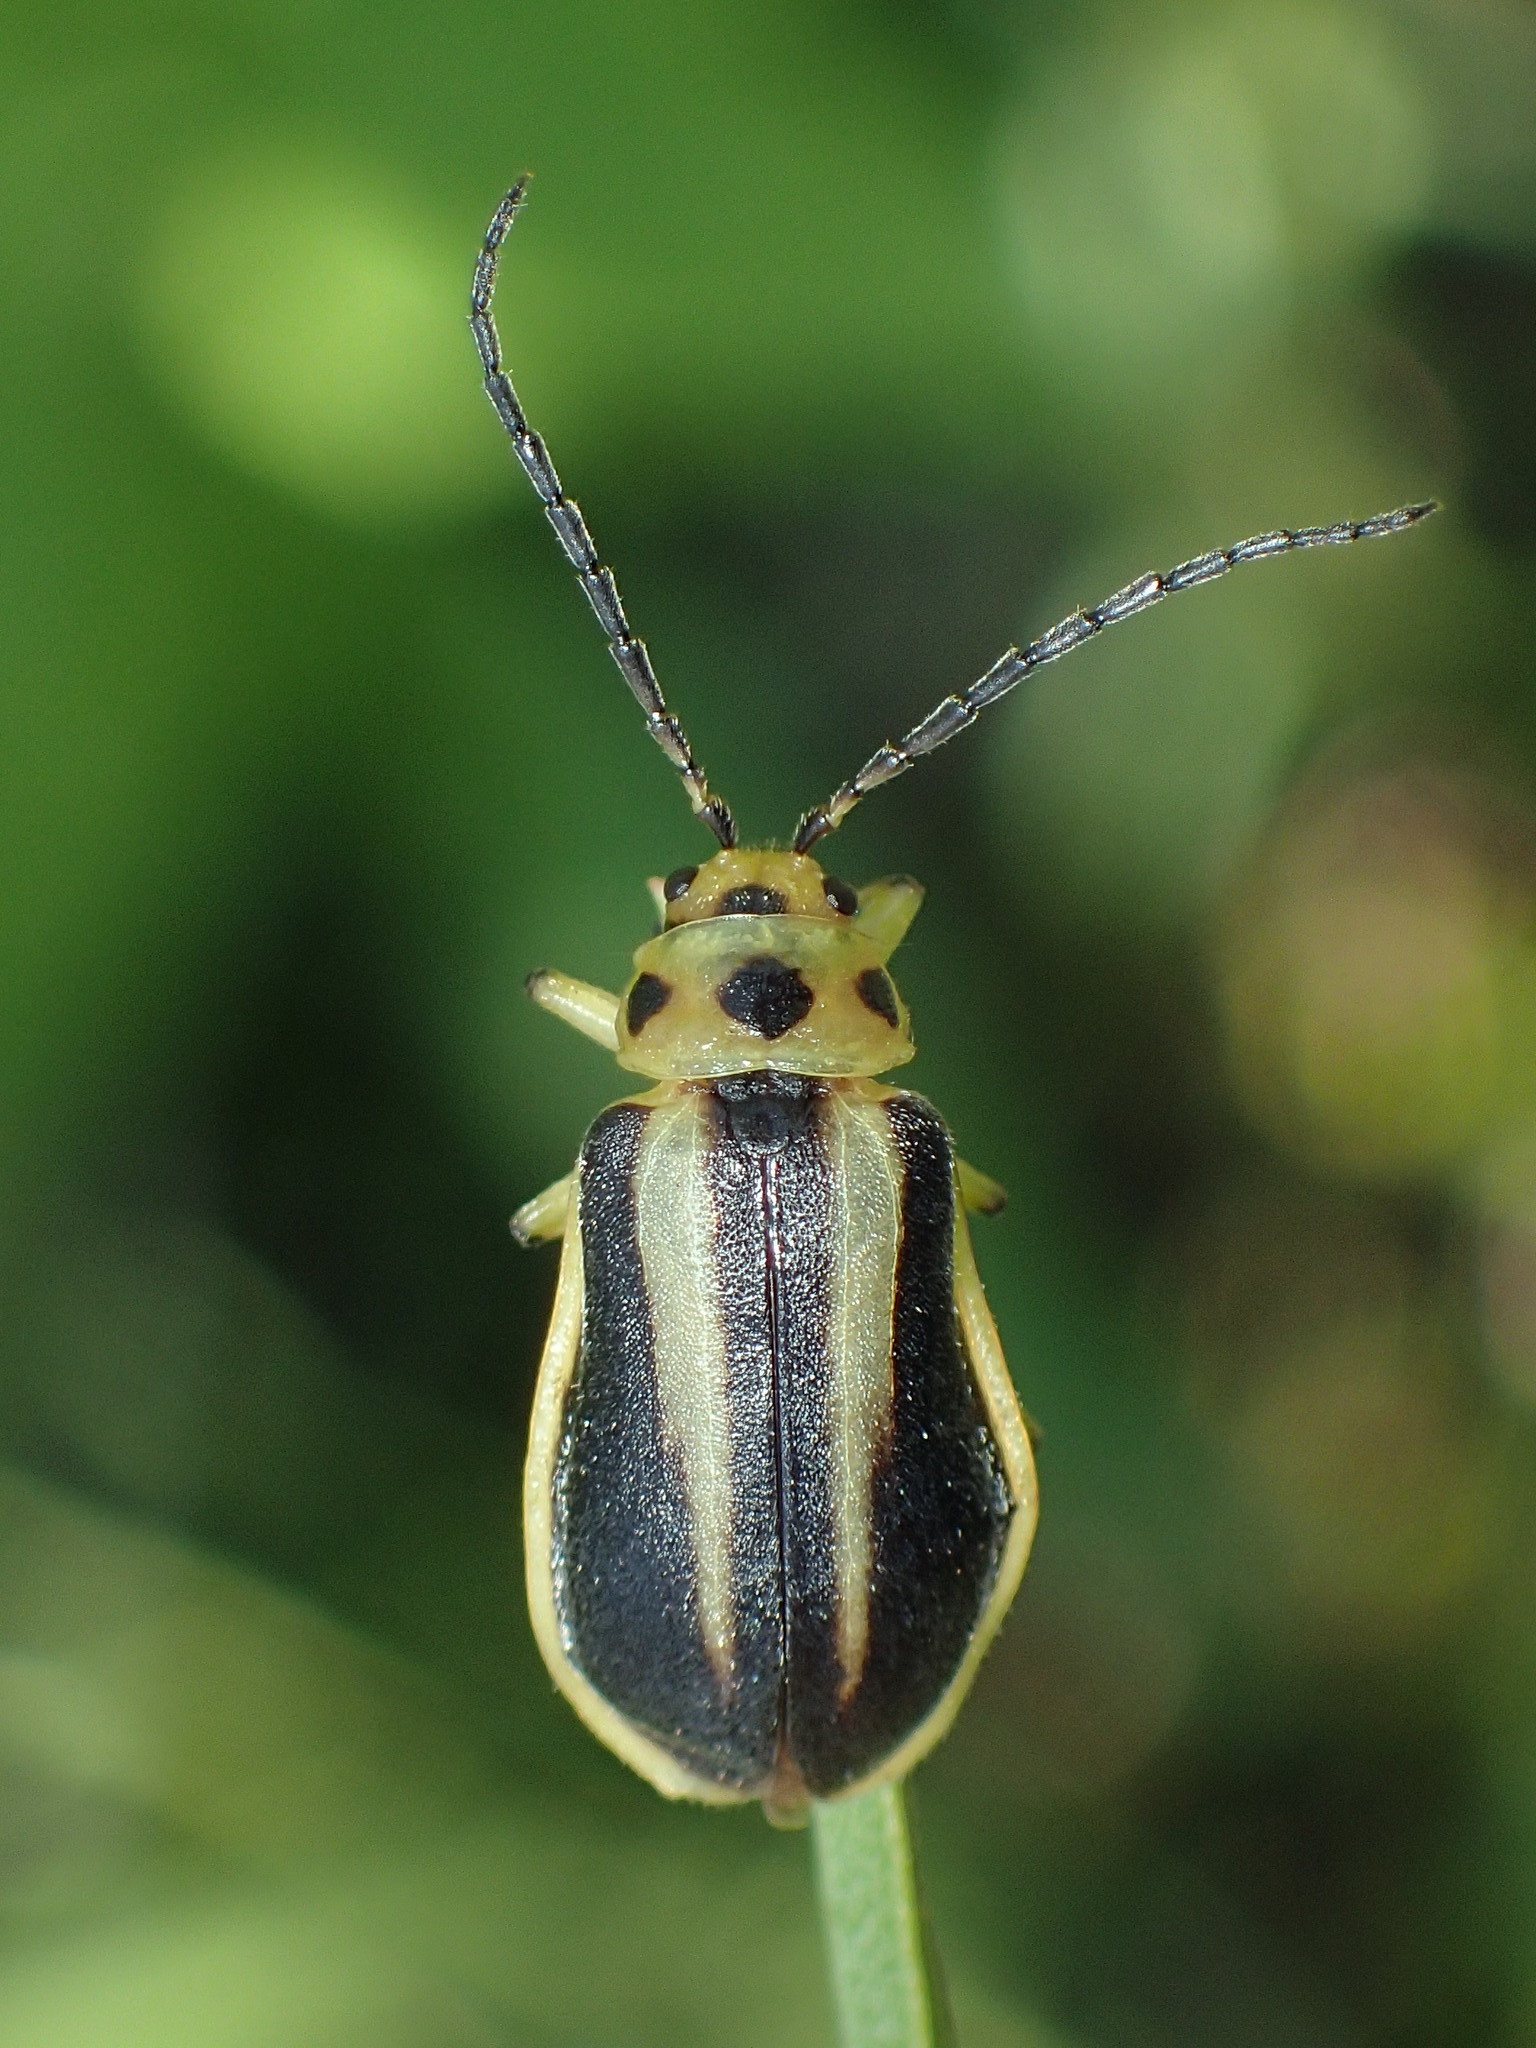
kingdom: Animalia
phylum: Arthropoda
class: Insecta
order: Coleoptera
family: Chrysomelidae
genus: Trirhabda
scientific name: Trirhabda bacharidis
